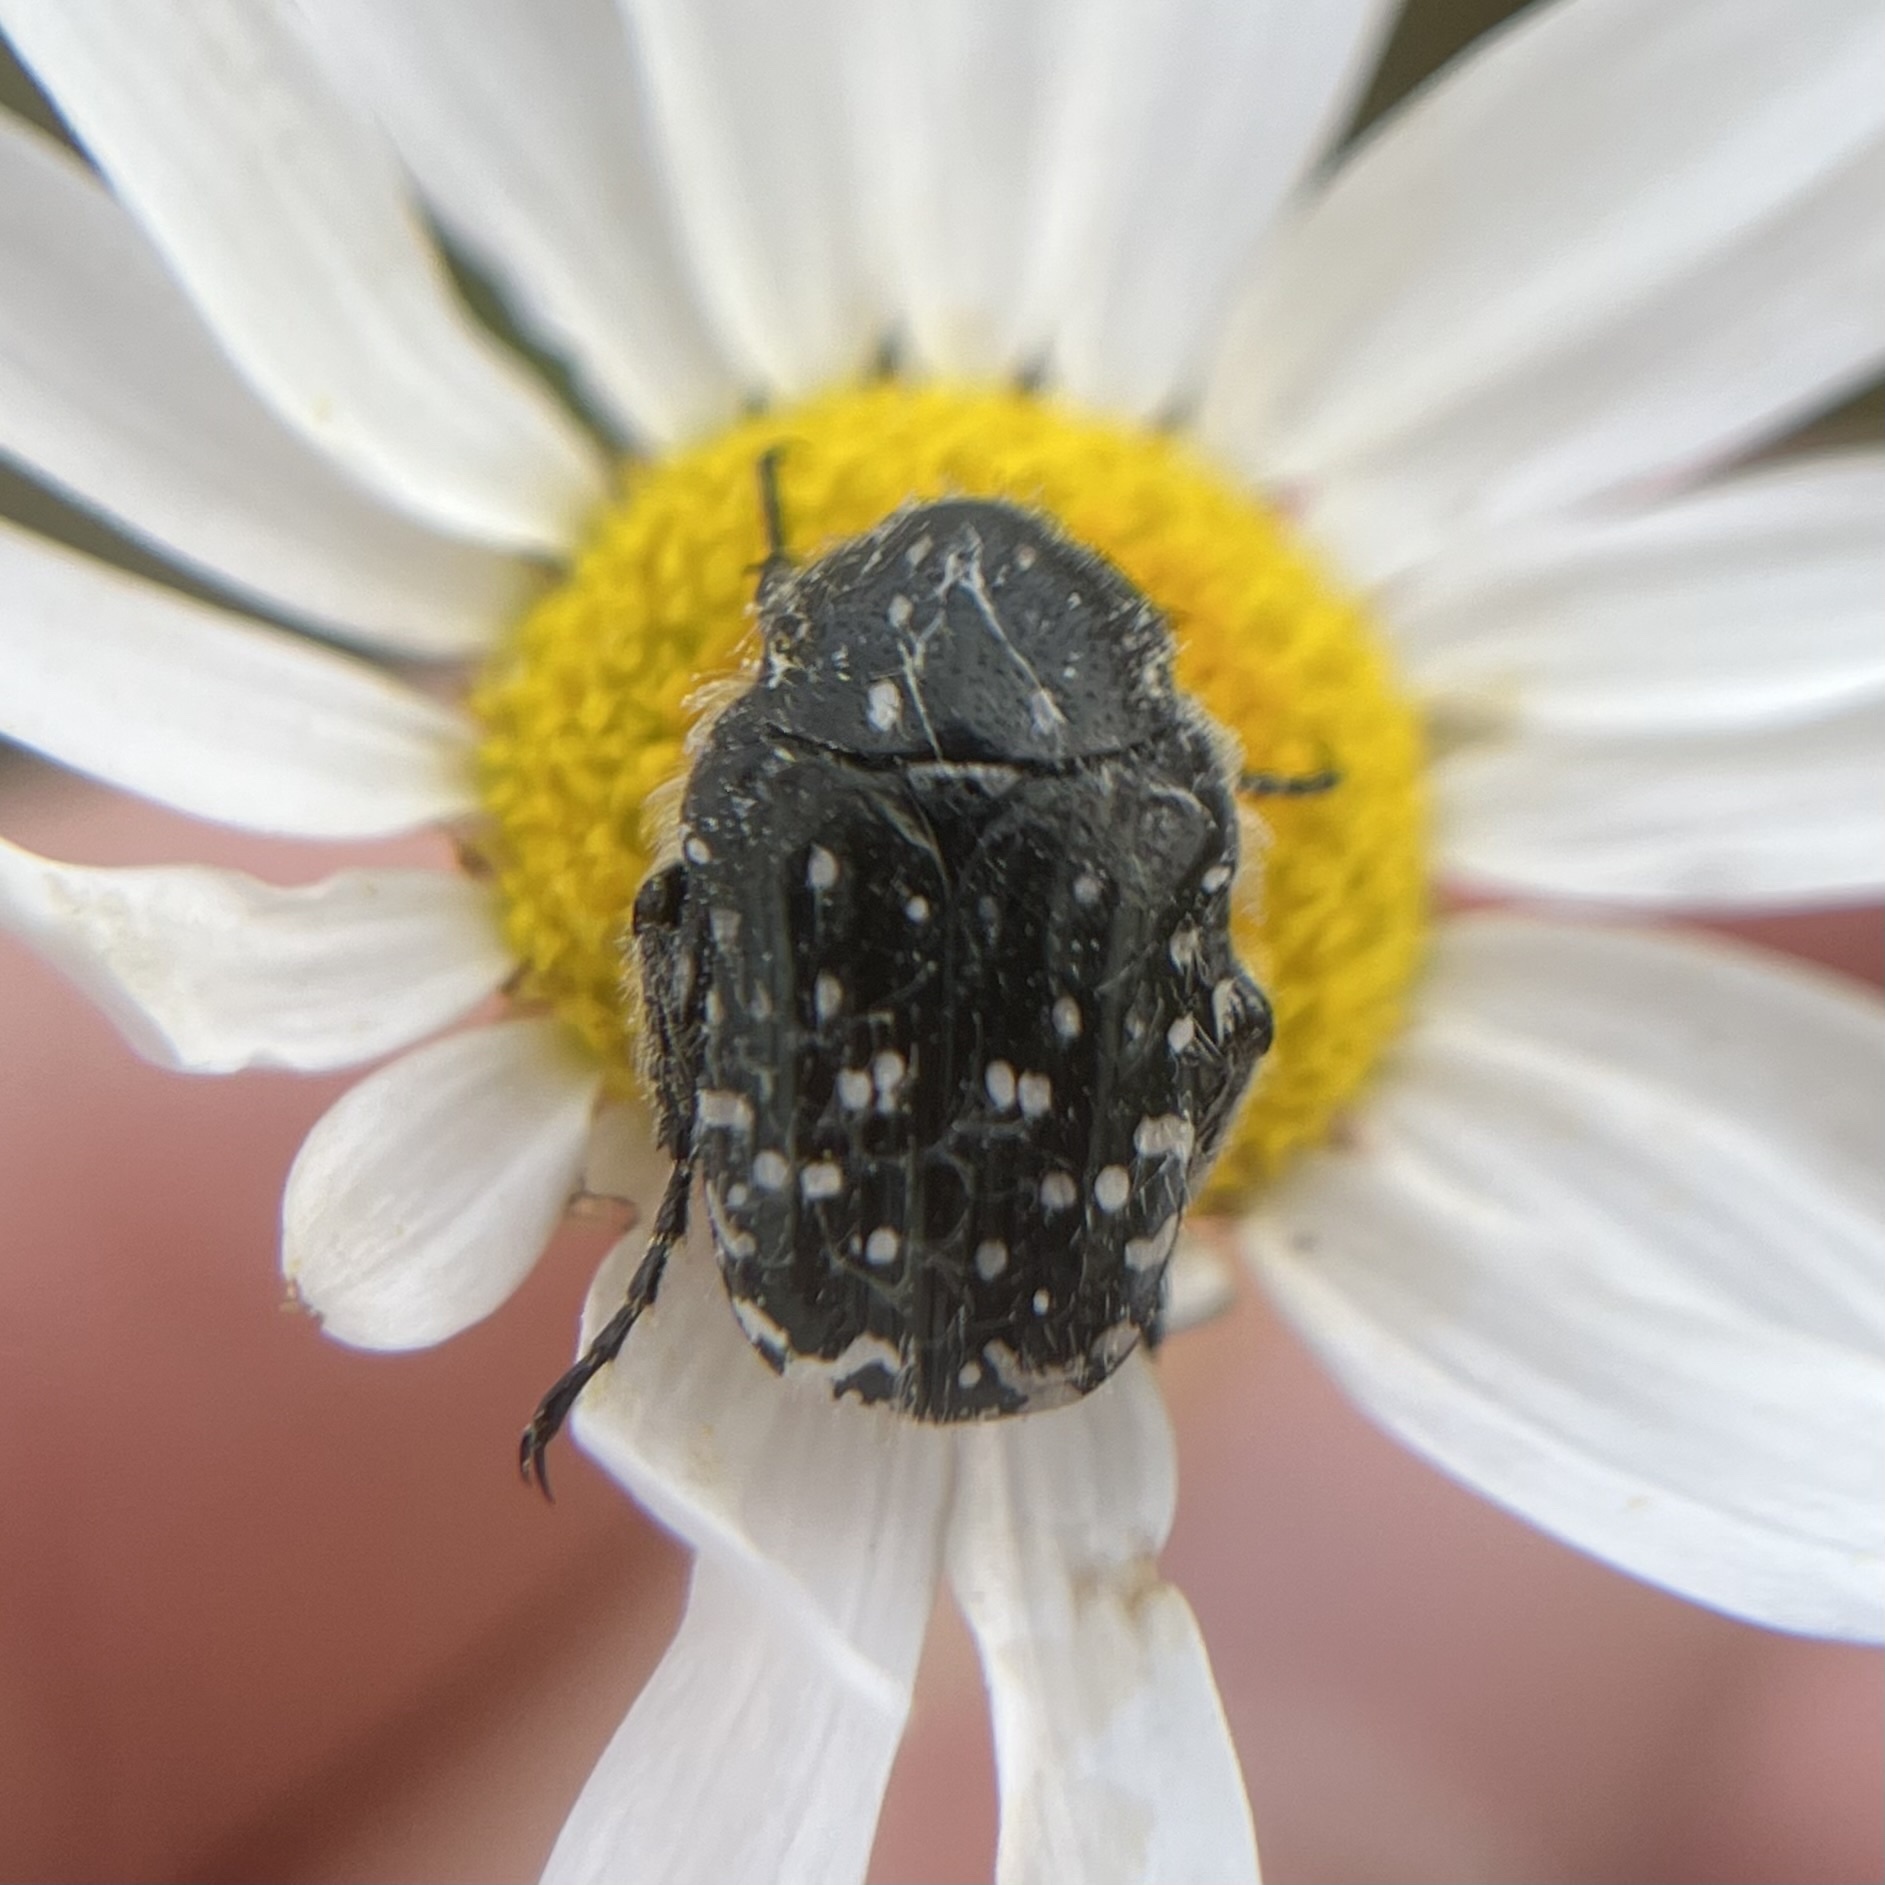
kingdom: Animalia
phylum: Arthropoda
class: Insecta
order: Coleoptera
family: Scarabaeidae
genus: Oxythyrea
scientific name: Oxythyrea funesta
